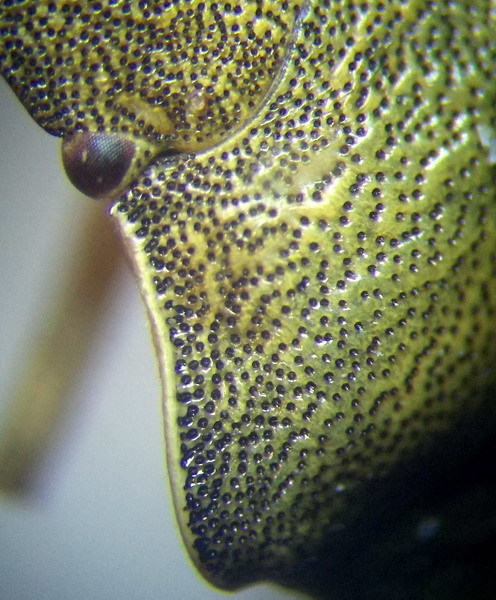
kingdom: Animalia
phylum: Arthropoda
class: Insecta
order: Hemiptera
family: Pentatomidae
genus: Holcostethus
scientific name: Holcostethus strictus
